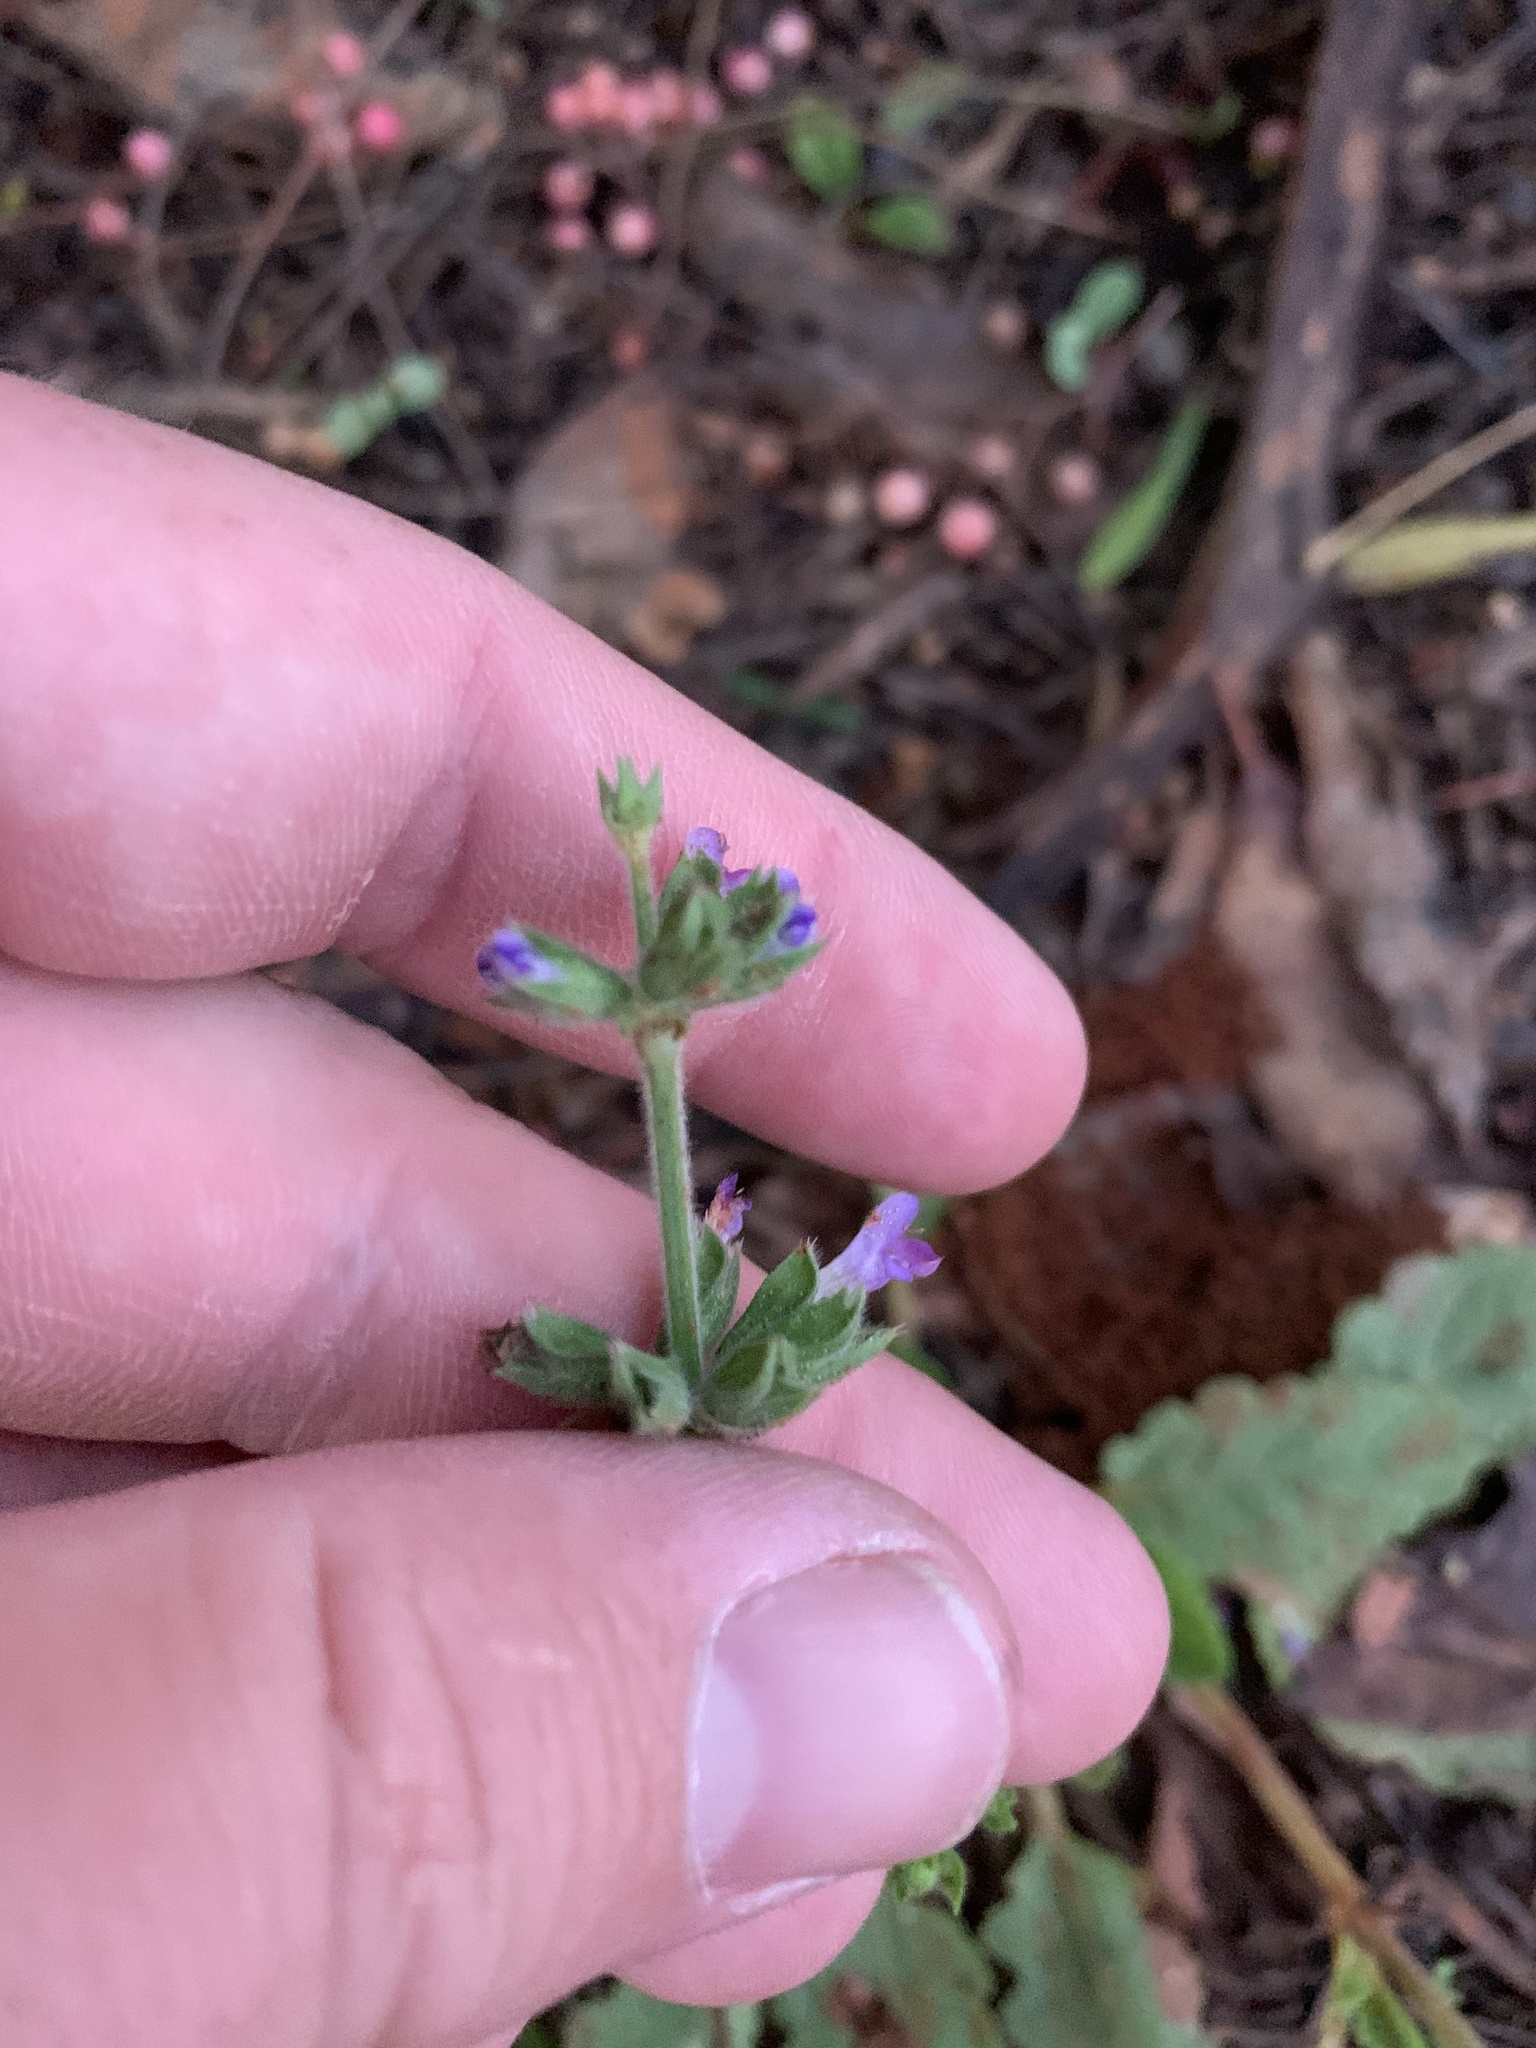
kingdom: Plantae
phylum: Tracheophyta
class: Magnoliopsida
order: Lamiales
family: Lamiaceae
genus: Salvia
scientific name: Salvia verbenaca
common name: Wild clary
